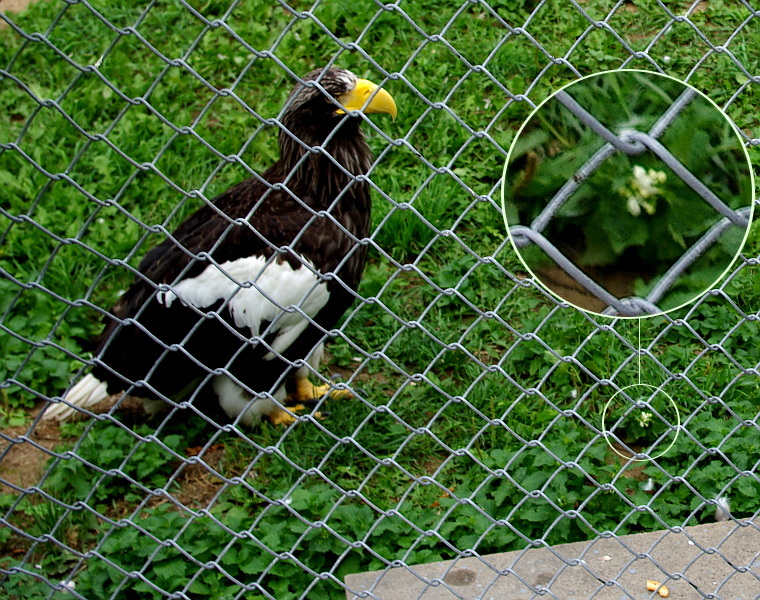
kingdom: Plantae
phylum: Tracheophyta
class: Magnoliopsida
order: Lamiales
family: Lamiaceae
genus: Lamium
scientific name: Lamium album
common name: White dead-nettle
